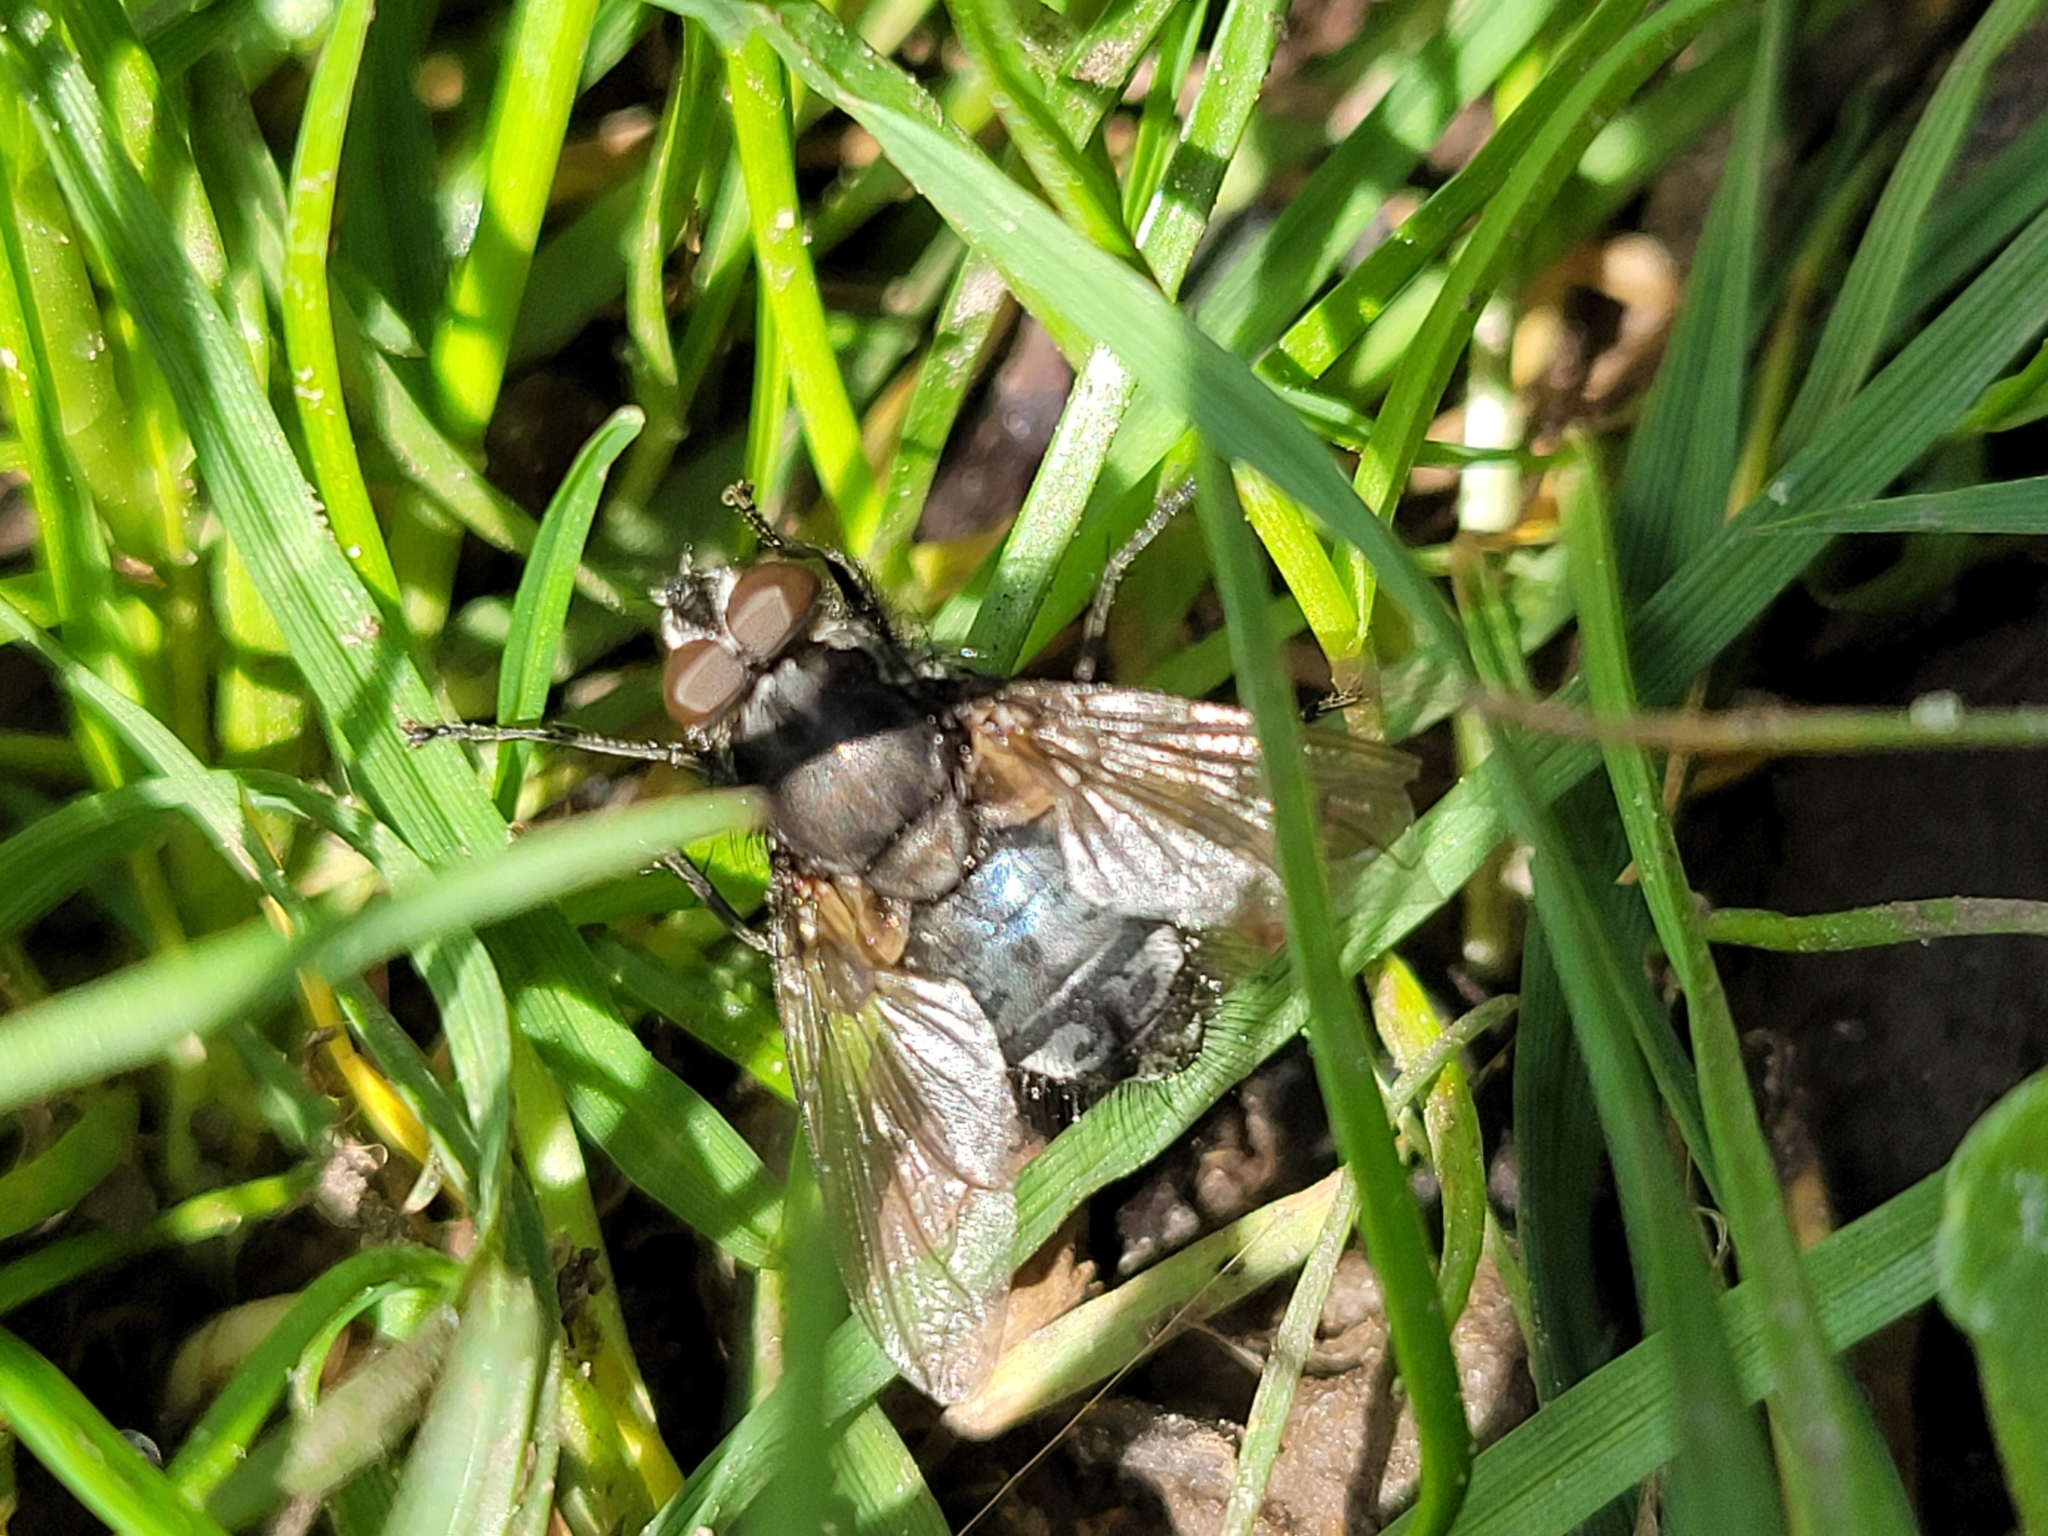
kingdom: Animalia
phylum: Arthropoda
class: Insecta
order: Diptera
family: Polleniidae
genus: Pollenia
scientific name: Pollenia vagabunda
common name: Vagabund cluster fly
